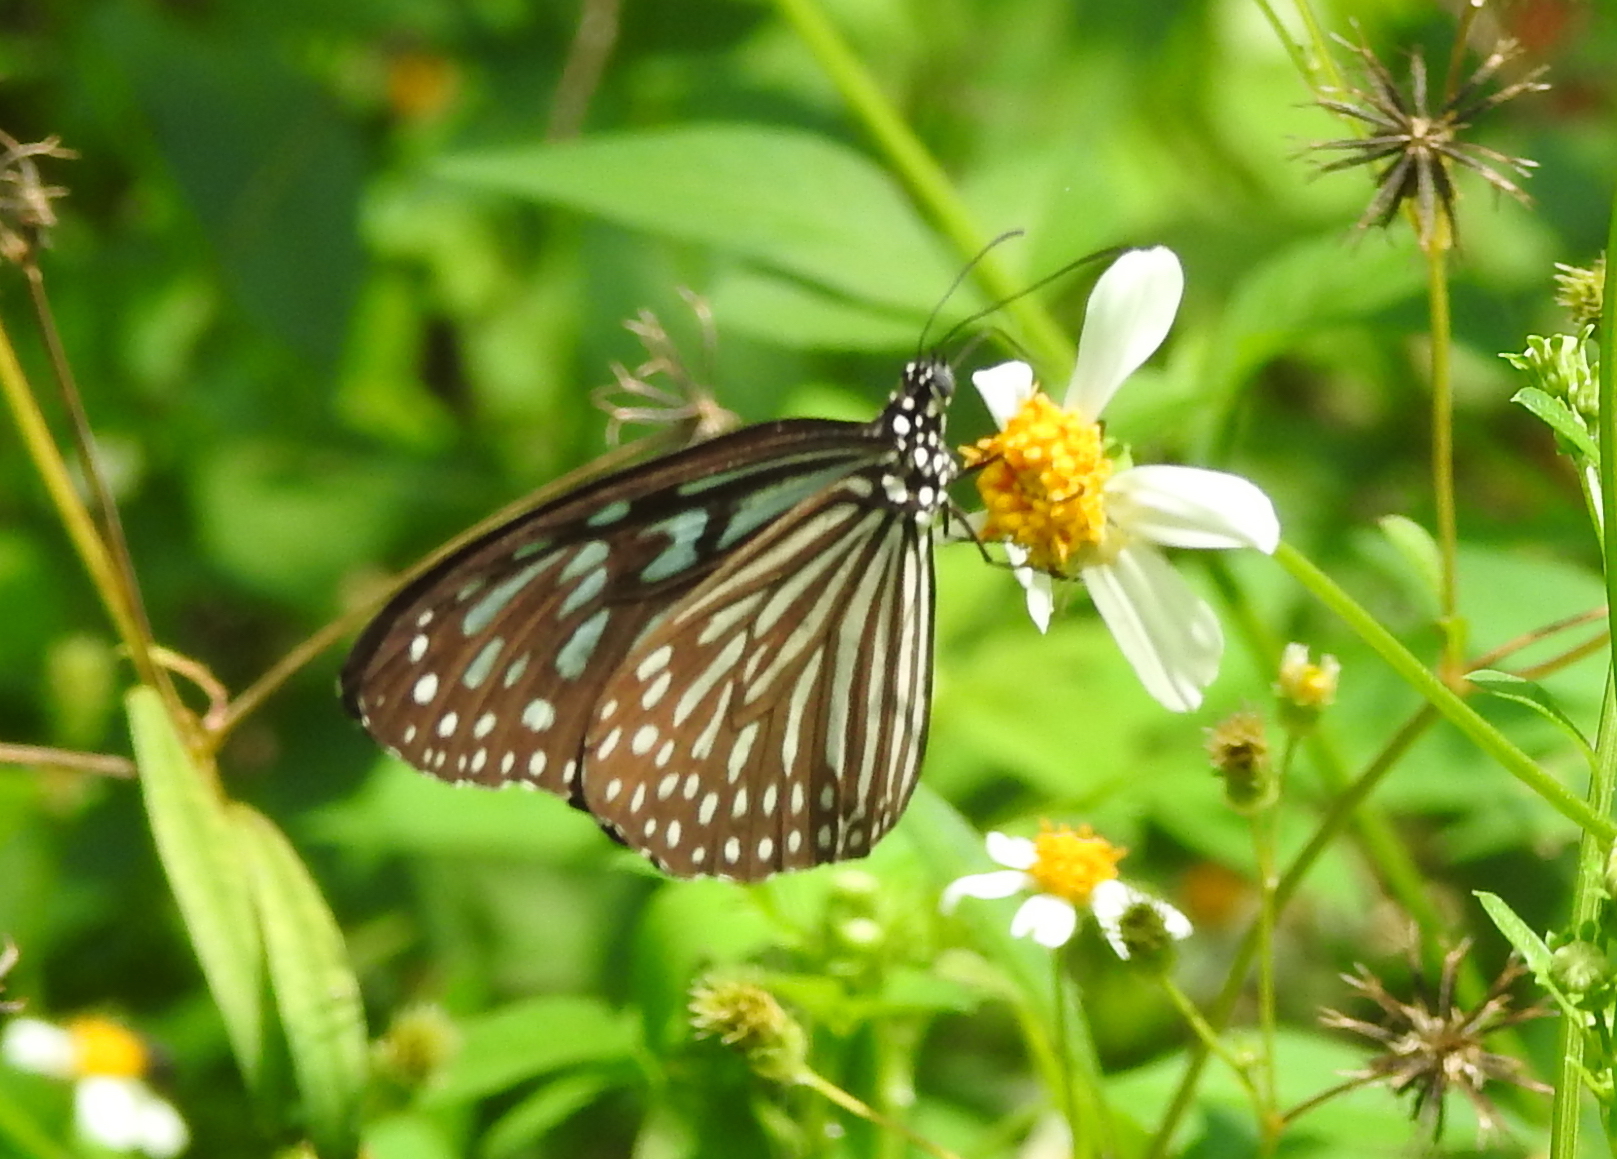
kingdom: Animalia
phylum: Arthropoda
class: Insecta
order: Lepidoptera
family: Nymphalidae
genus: Ideopsis
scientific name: Ideopsis vulgaris
